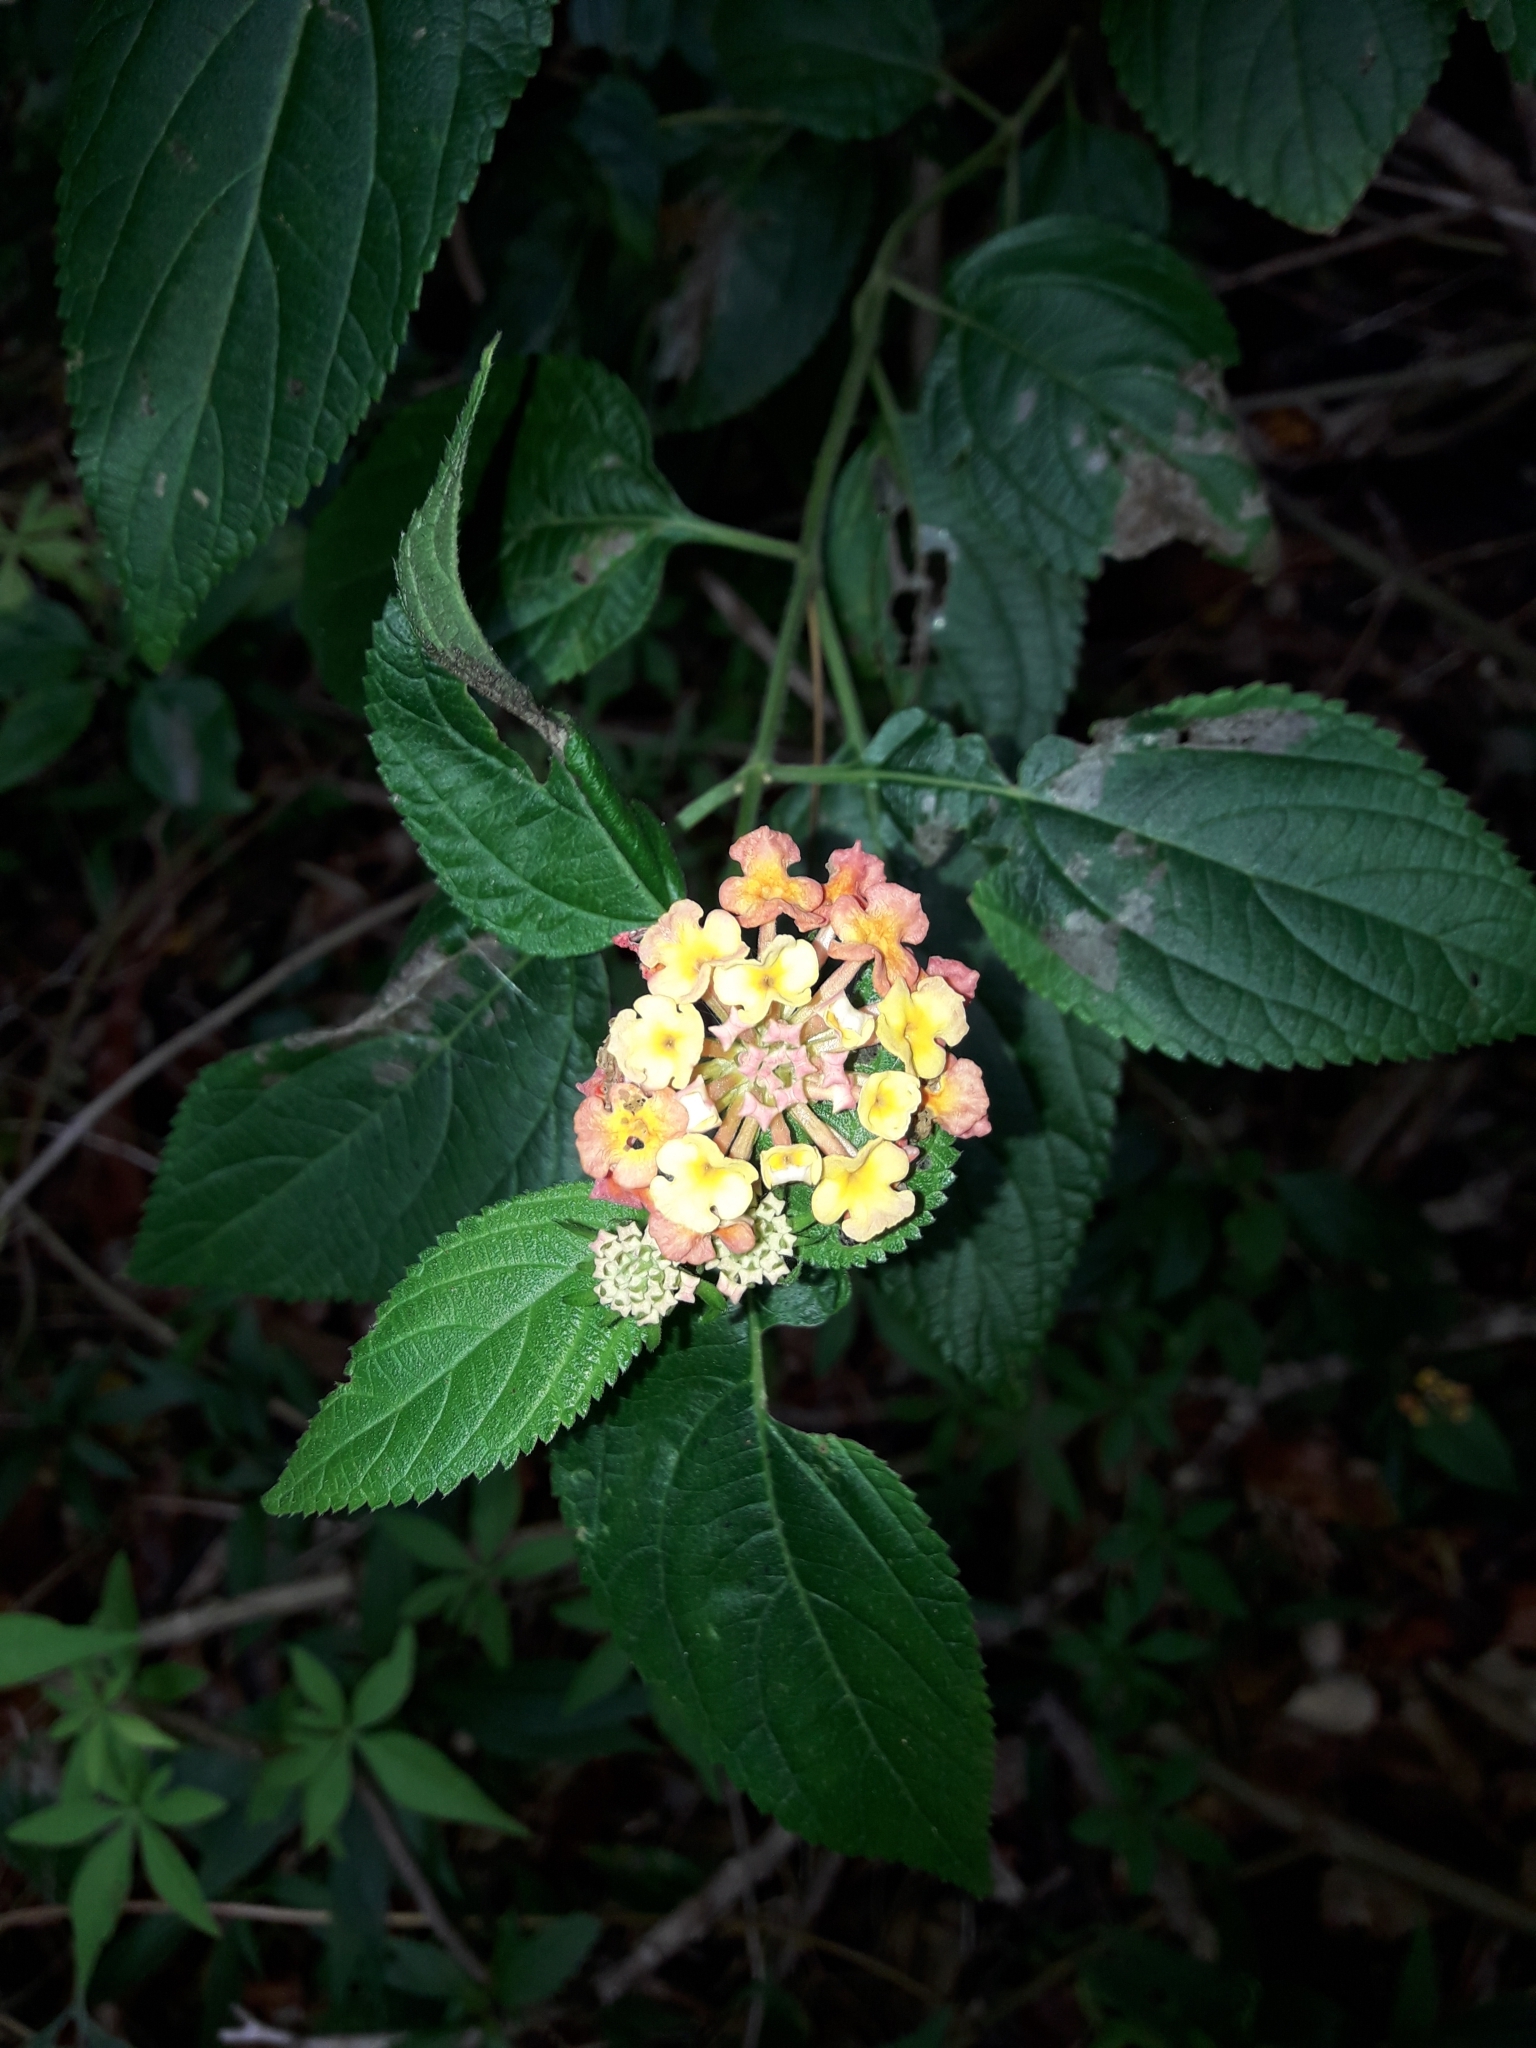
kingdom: Plantae
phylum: Tracheophyta
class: Magnoliopsida
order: Lamiales
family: Verbenaceae
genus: Lantana
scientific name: Lantana camara
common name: Lantana
